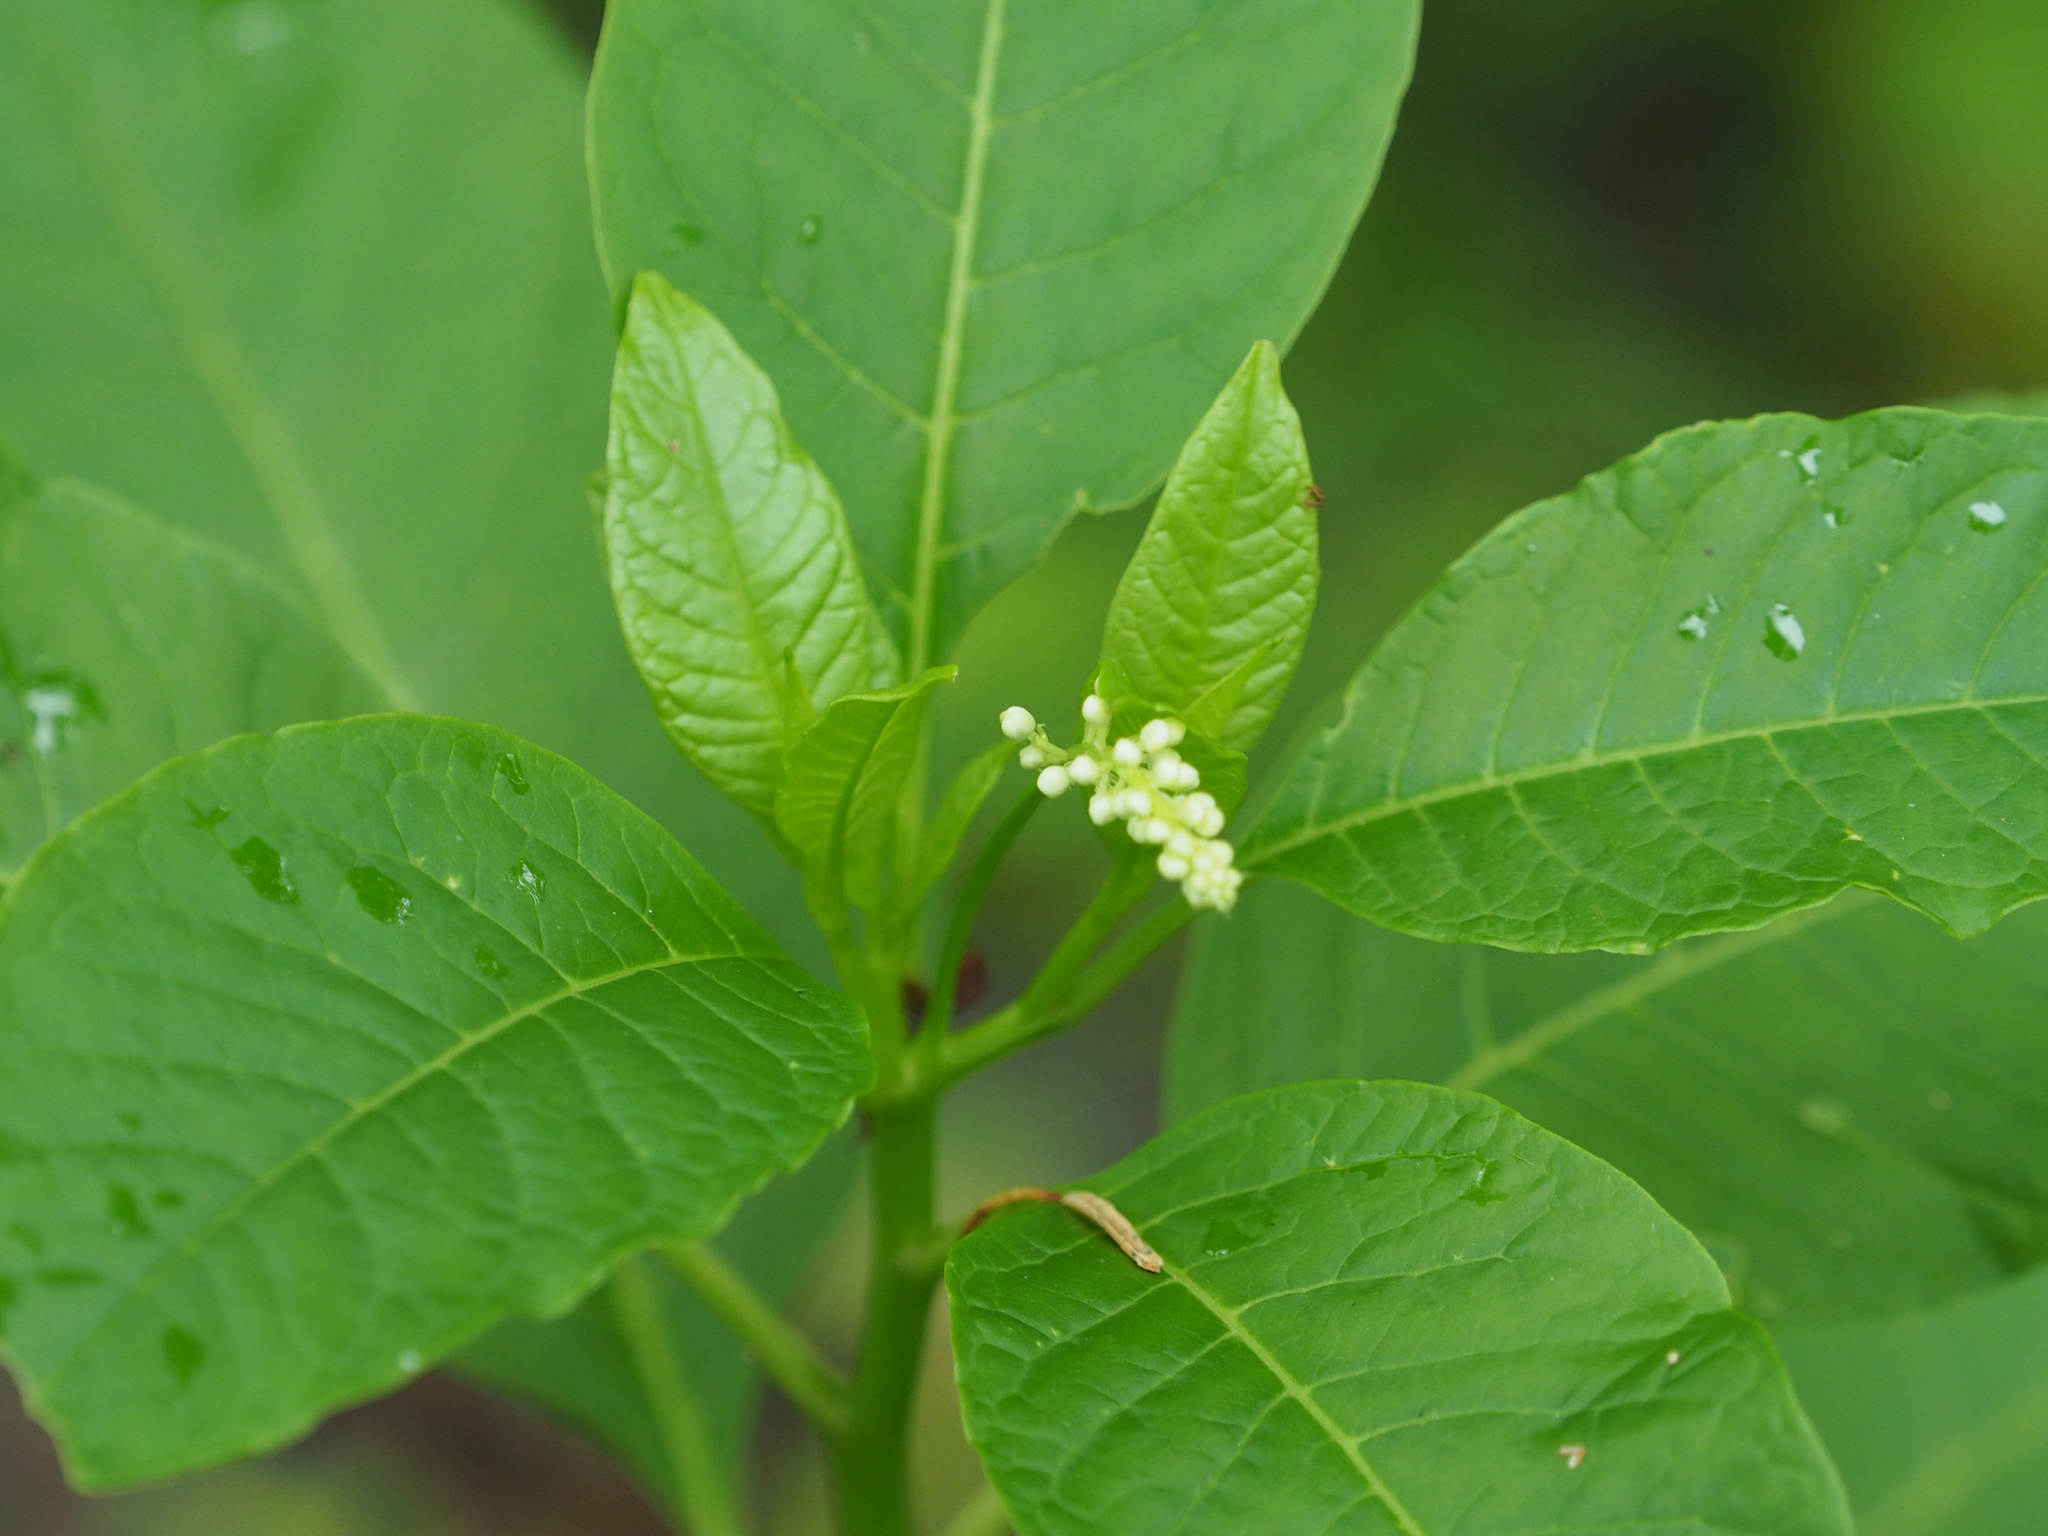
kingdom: Plantae
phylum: Tracheophyta
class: Magnoliopsida
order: Caryophyllales
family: Phytolaccaceae
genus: Phytolacca
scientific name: Phytolacca americana
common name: American pokeweed
